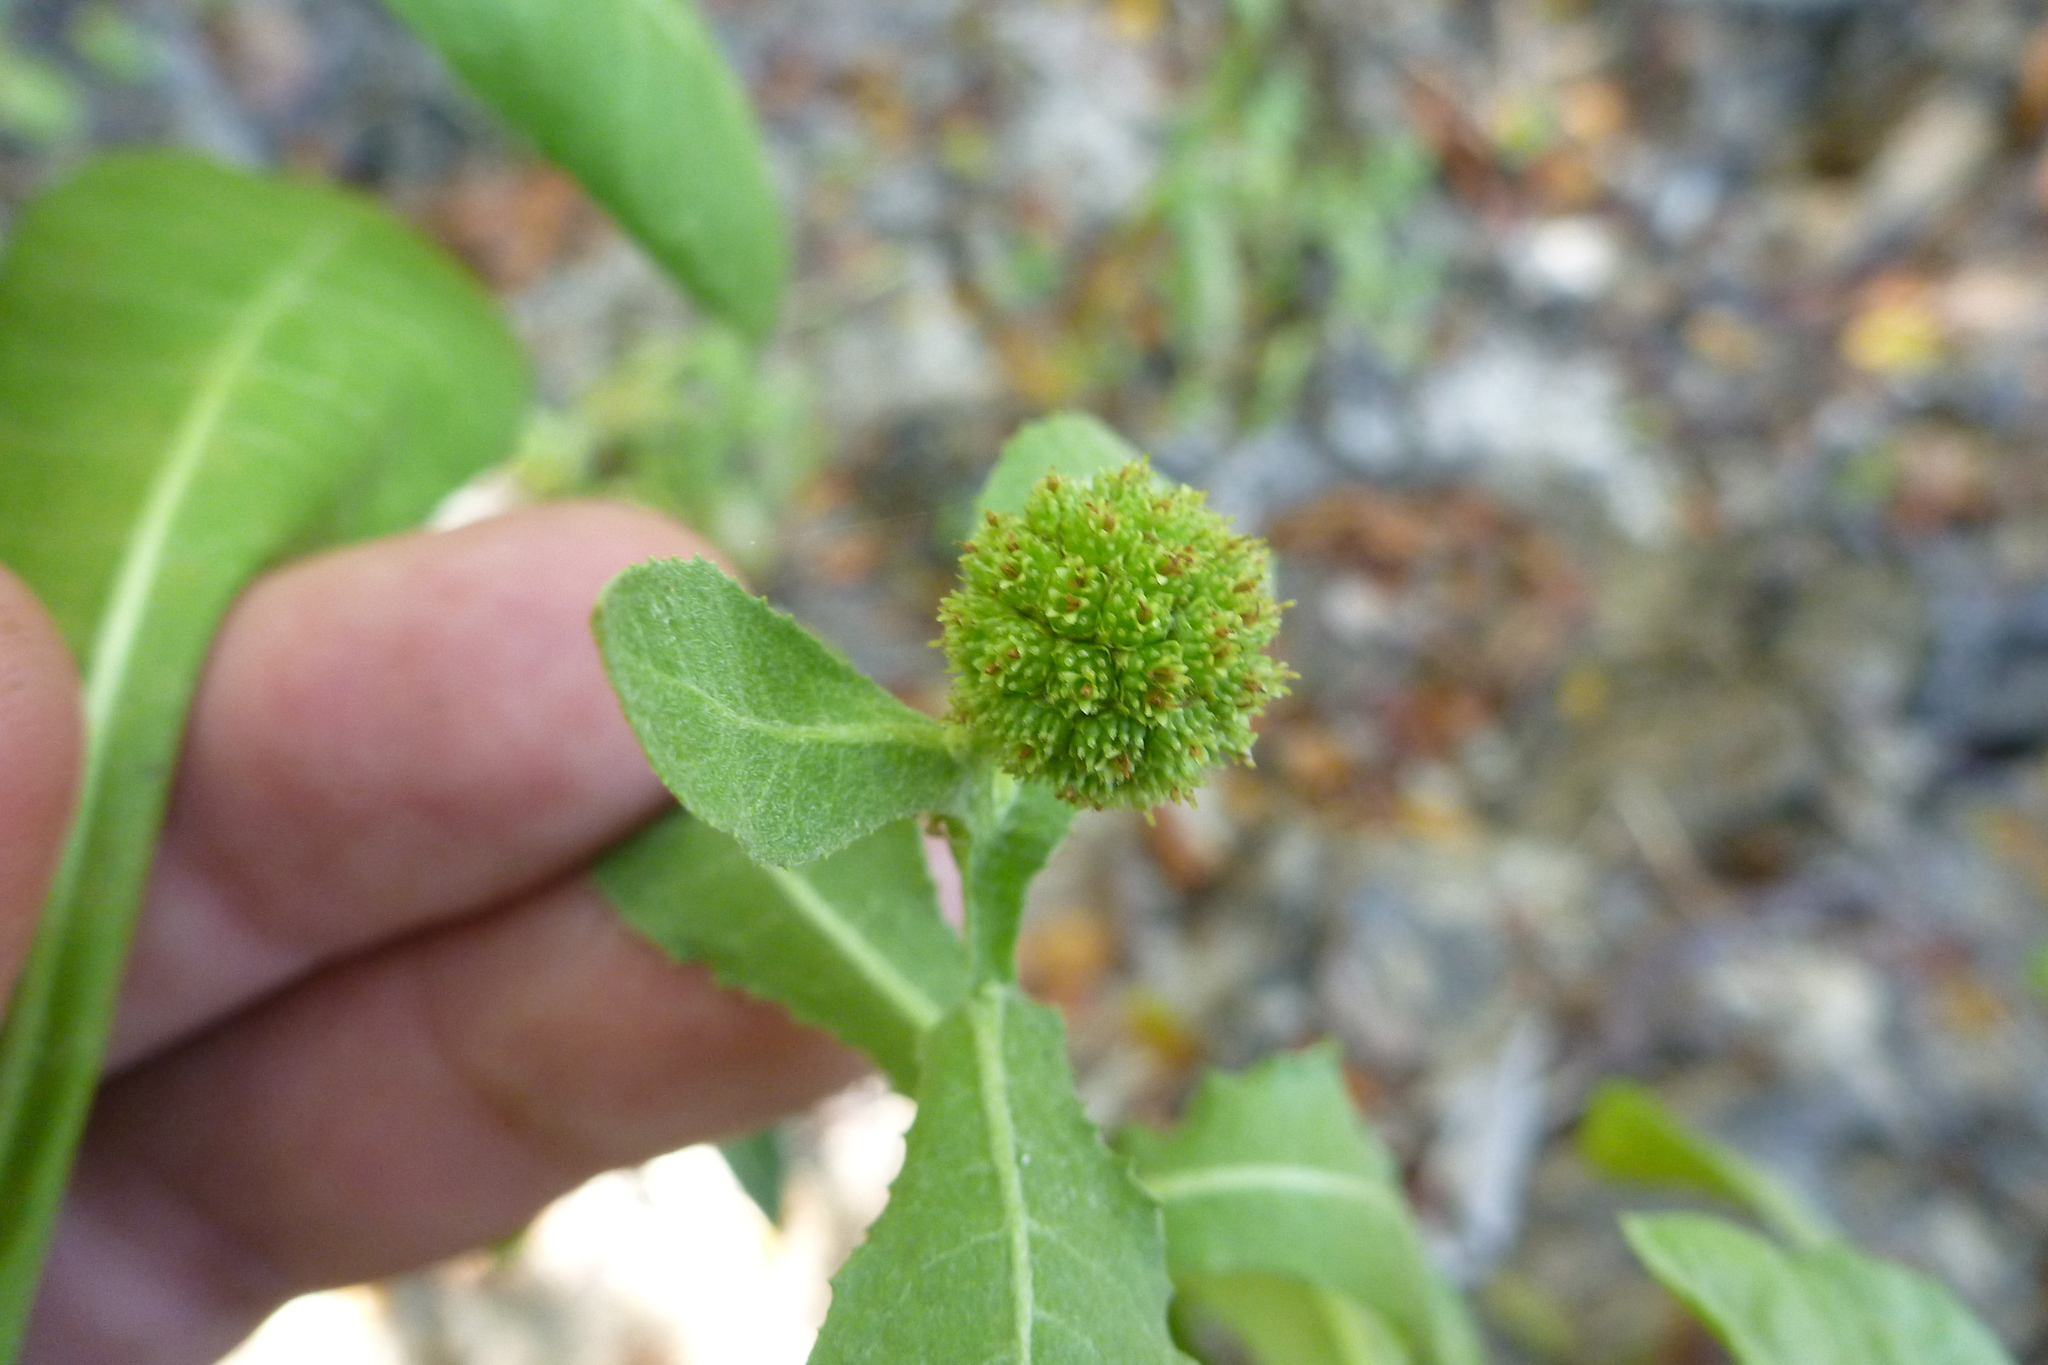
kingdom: Plantae
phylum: Tracheophyta
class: Magnoliopsida
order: Asterales
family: Asteraceae
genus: Sphaeranthus
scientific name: Sphaeranthus africanus
